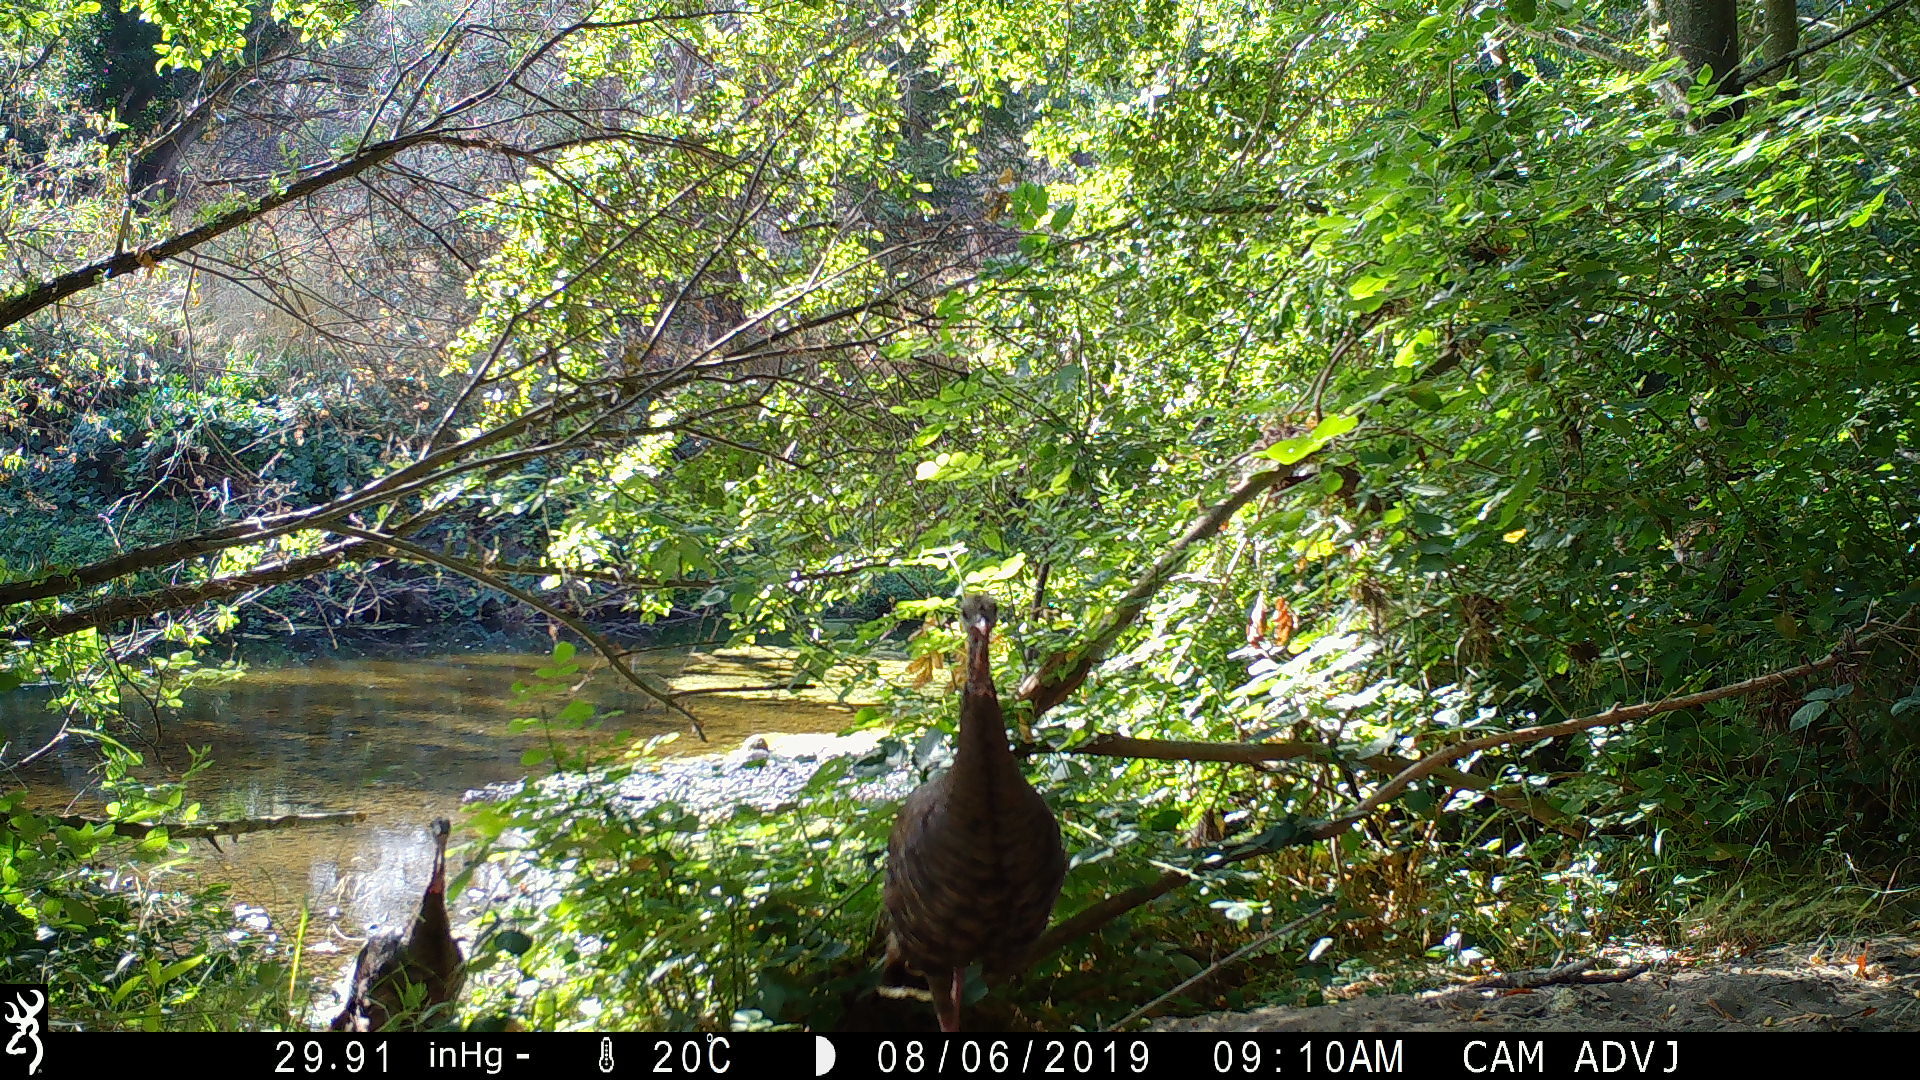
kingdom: Animalia
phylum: Chordata
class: Aves
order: Galliformes
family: Phasianidae
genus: Meleagris
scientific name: Meleagris gallopavo
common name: Wild turkey
